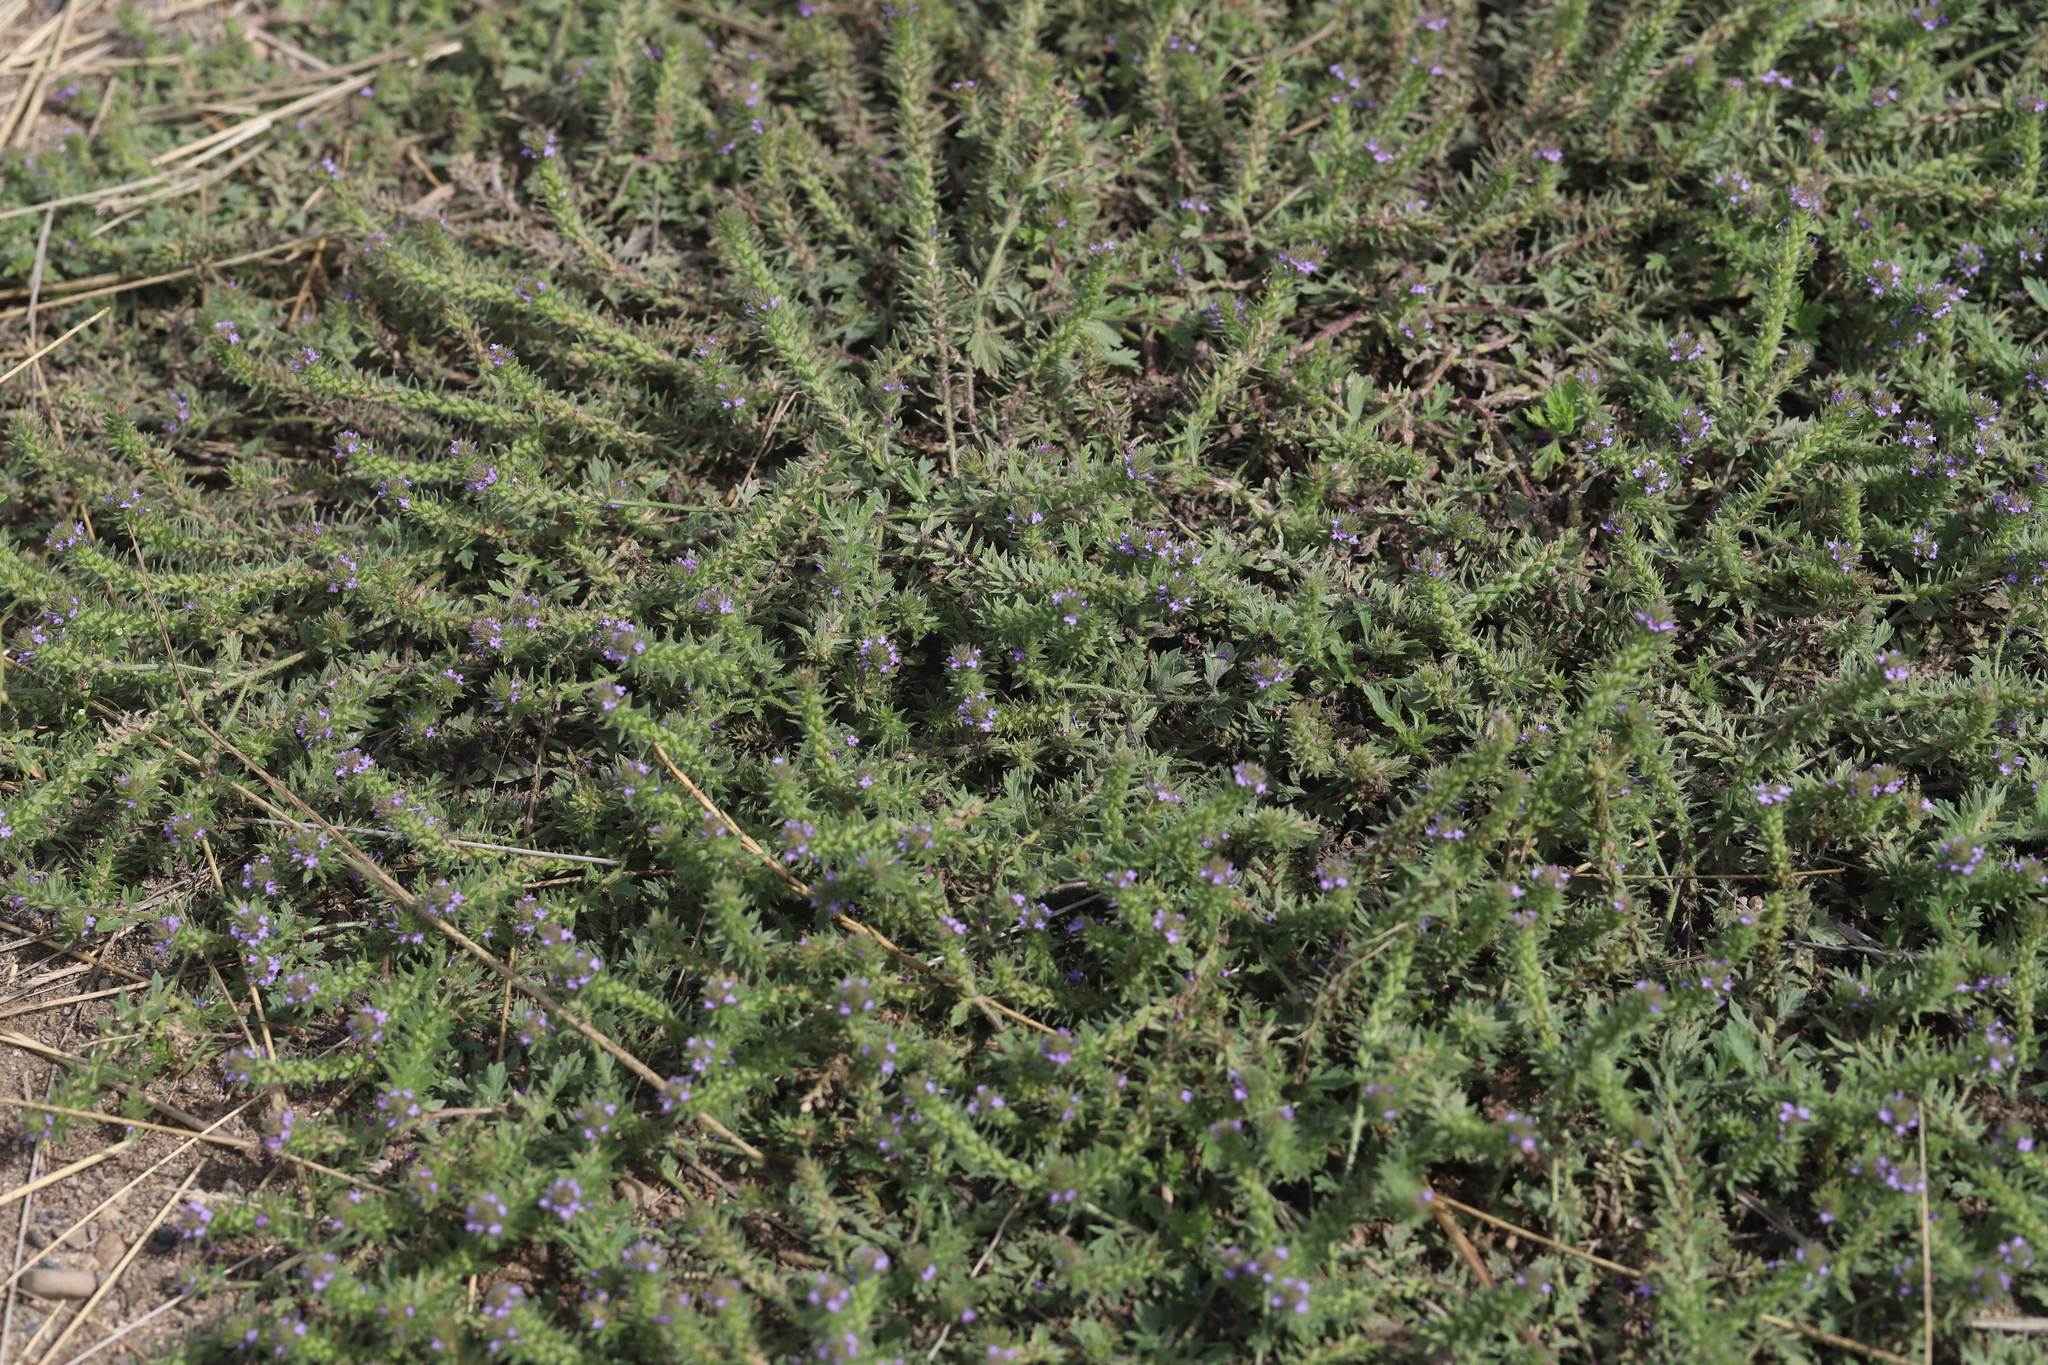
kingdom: Plantae
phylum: Tracheophyta
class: Magnoliopsida
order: Lamiales
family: Verbenaceae
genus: Verbena
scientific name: Verbena bracteata
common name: Bracted vervain
